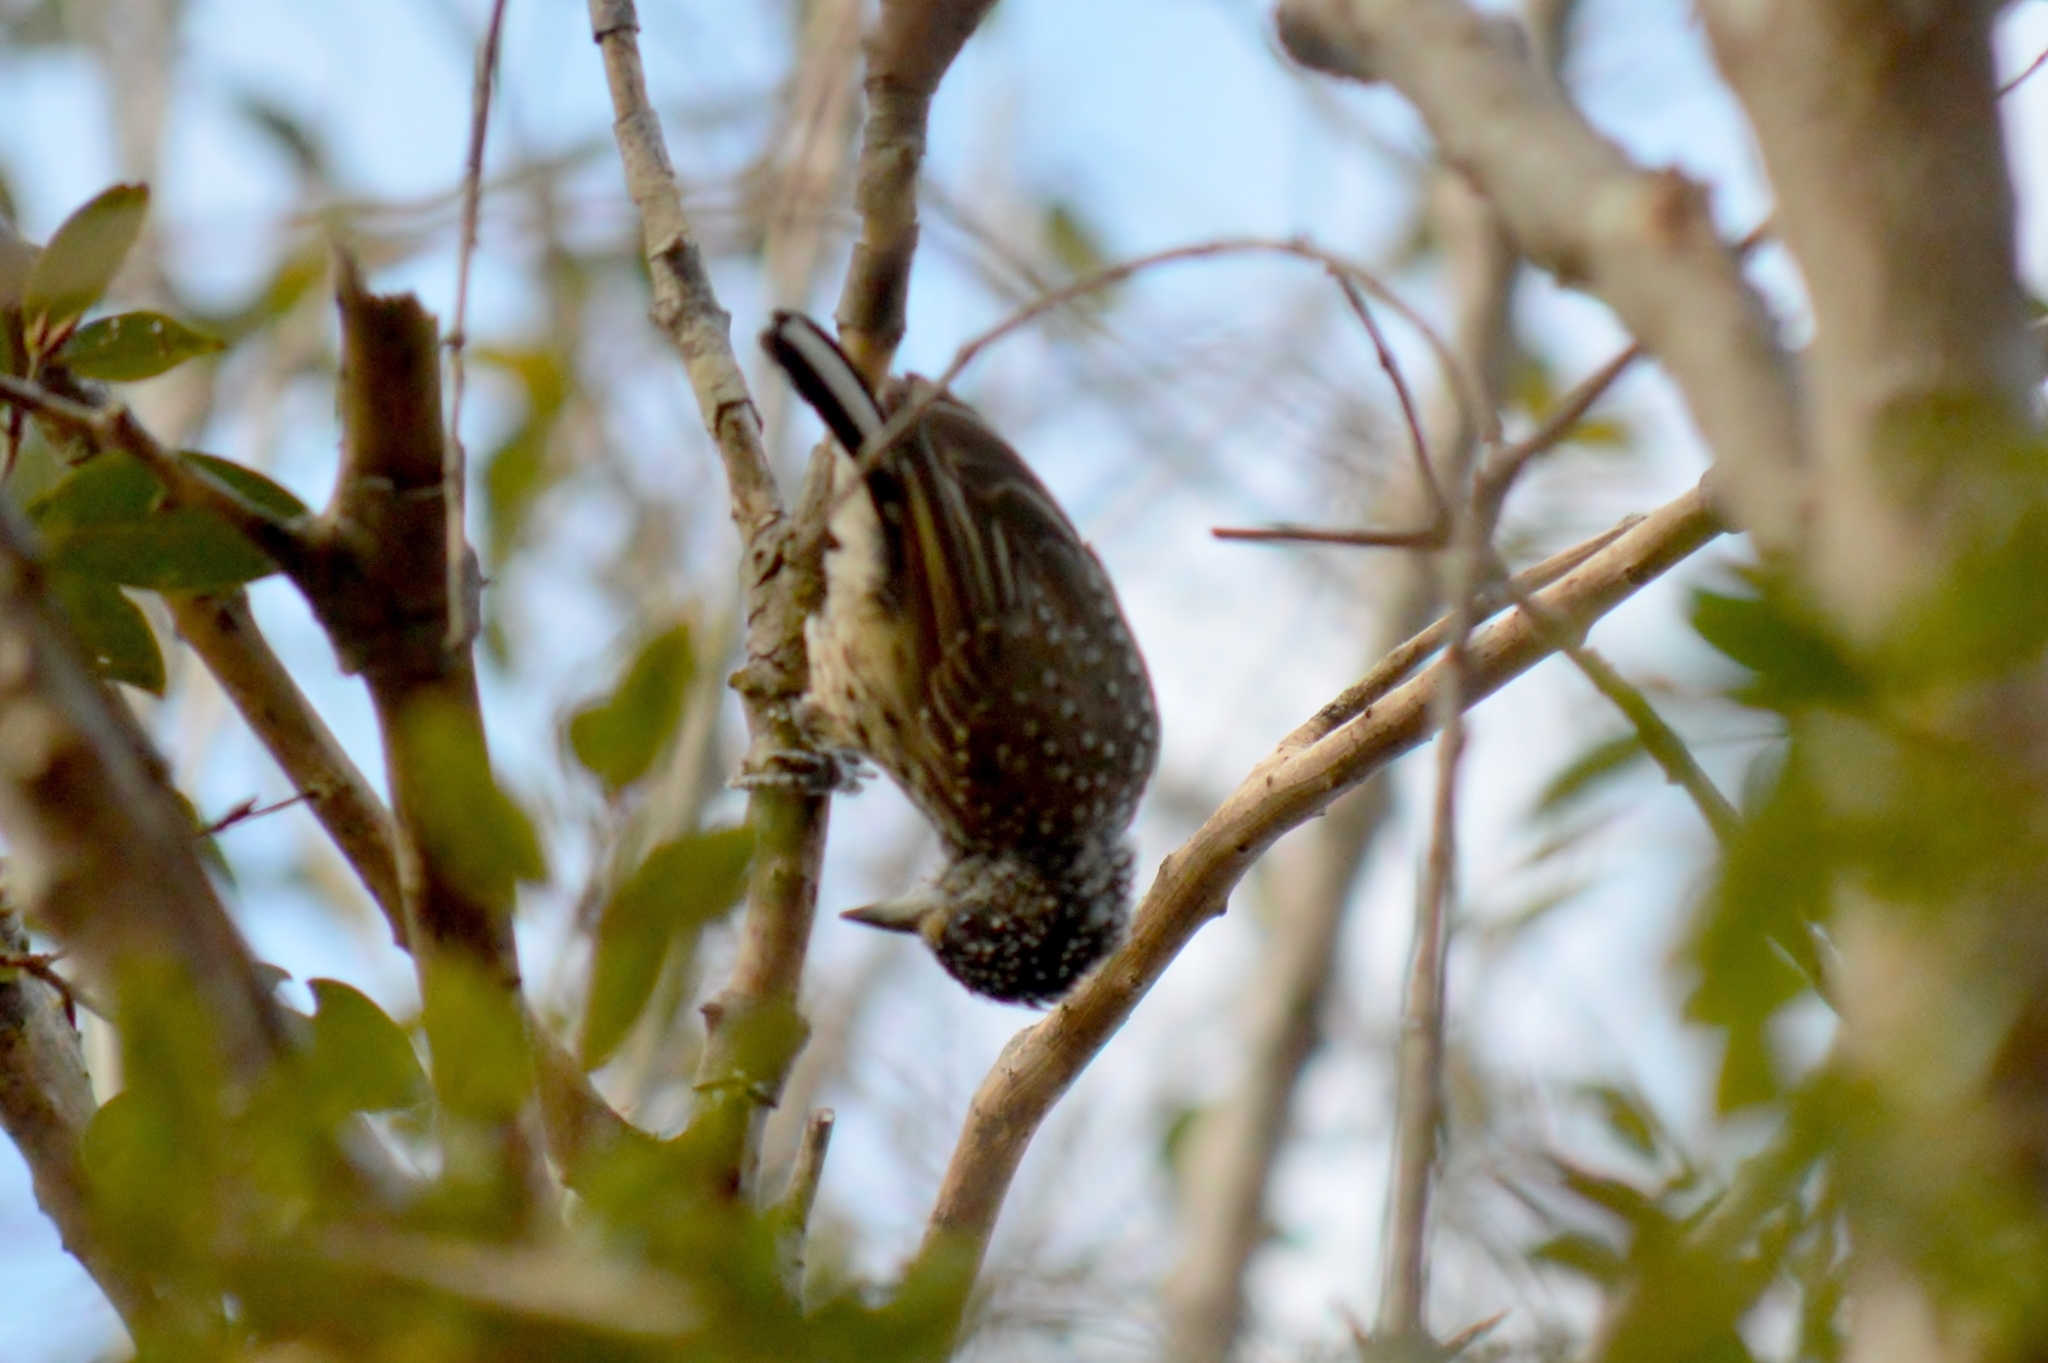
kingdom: Animalia
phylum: Chordata
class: Aves
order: Piciformes
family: Picidae
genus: Picumnus
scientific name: Picumnus albosquamatus
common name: White-wedged piculet
